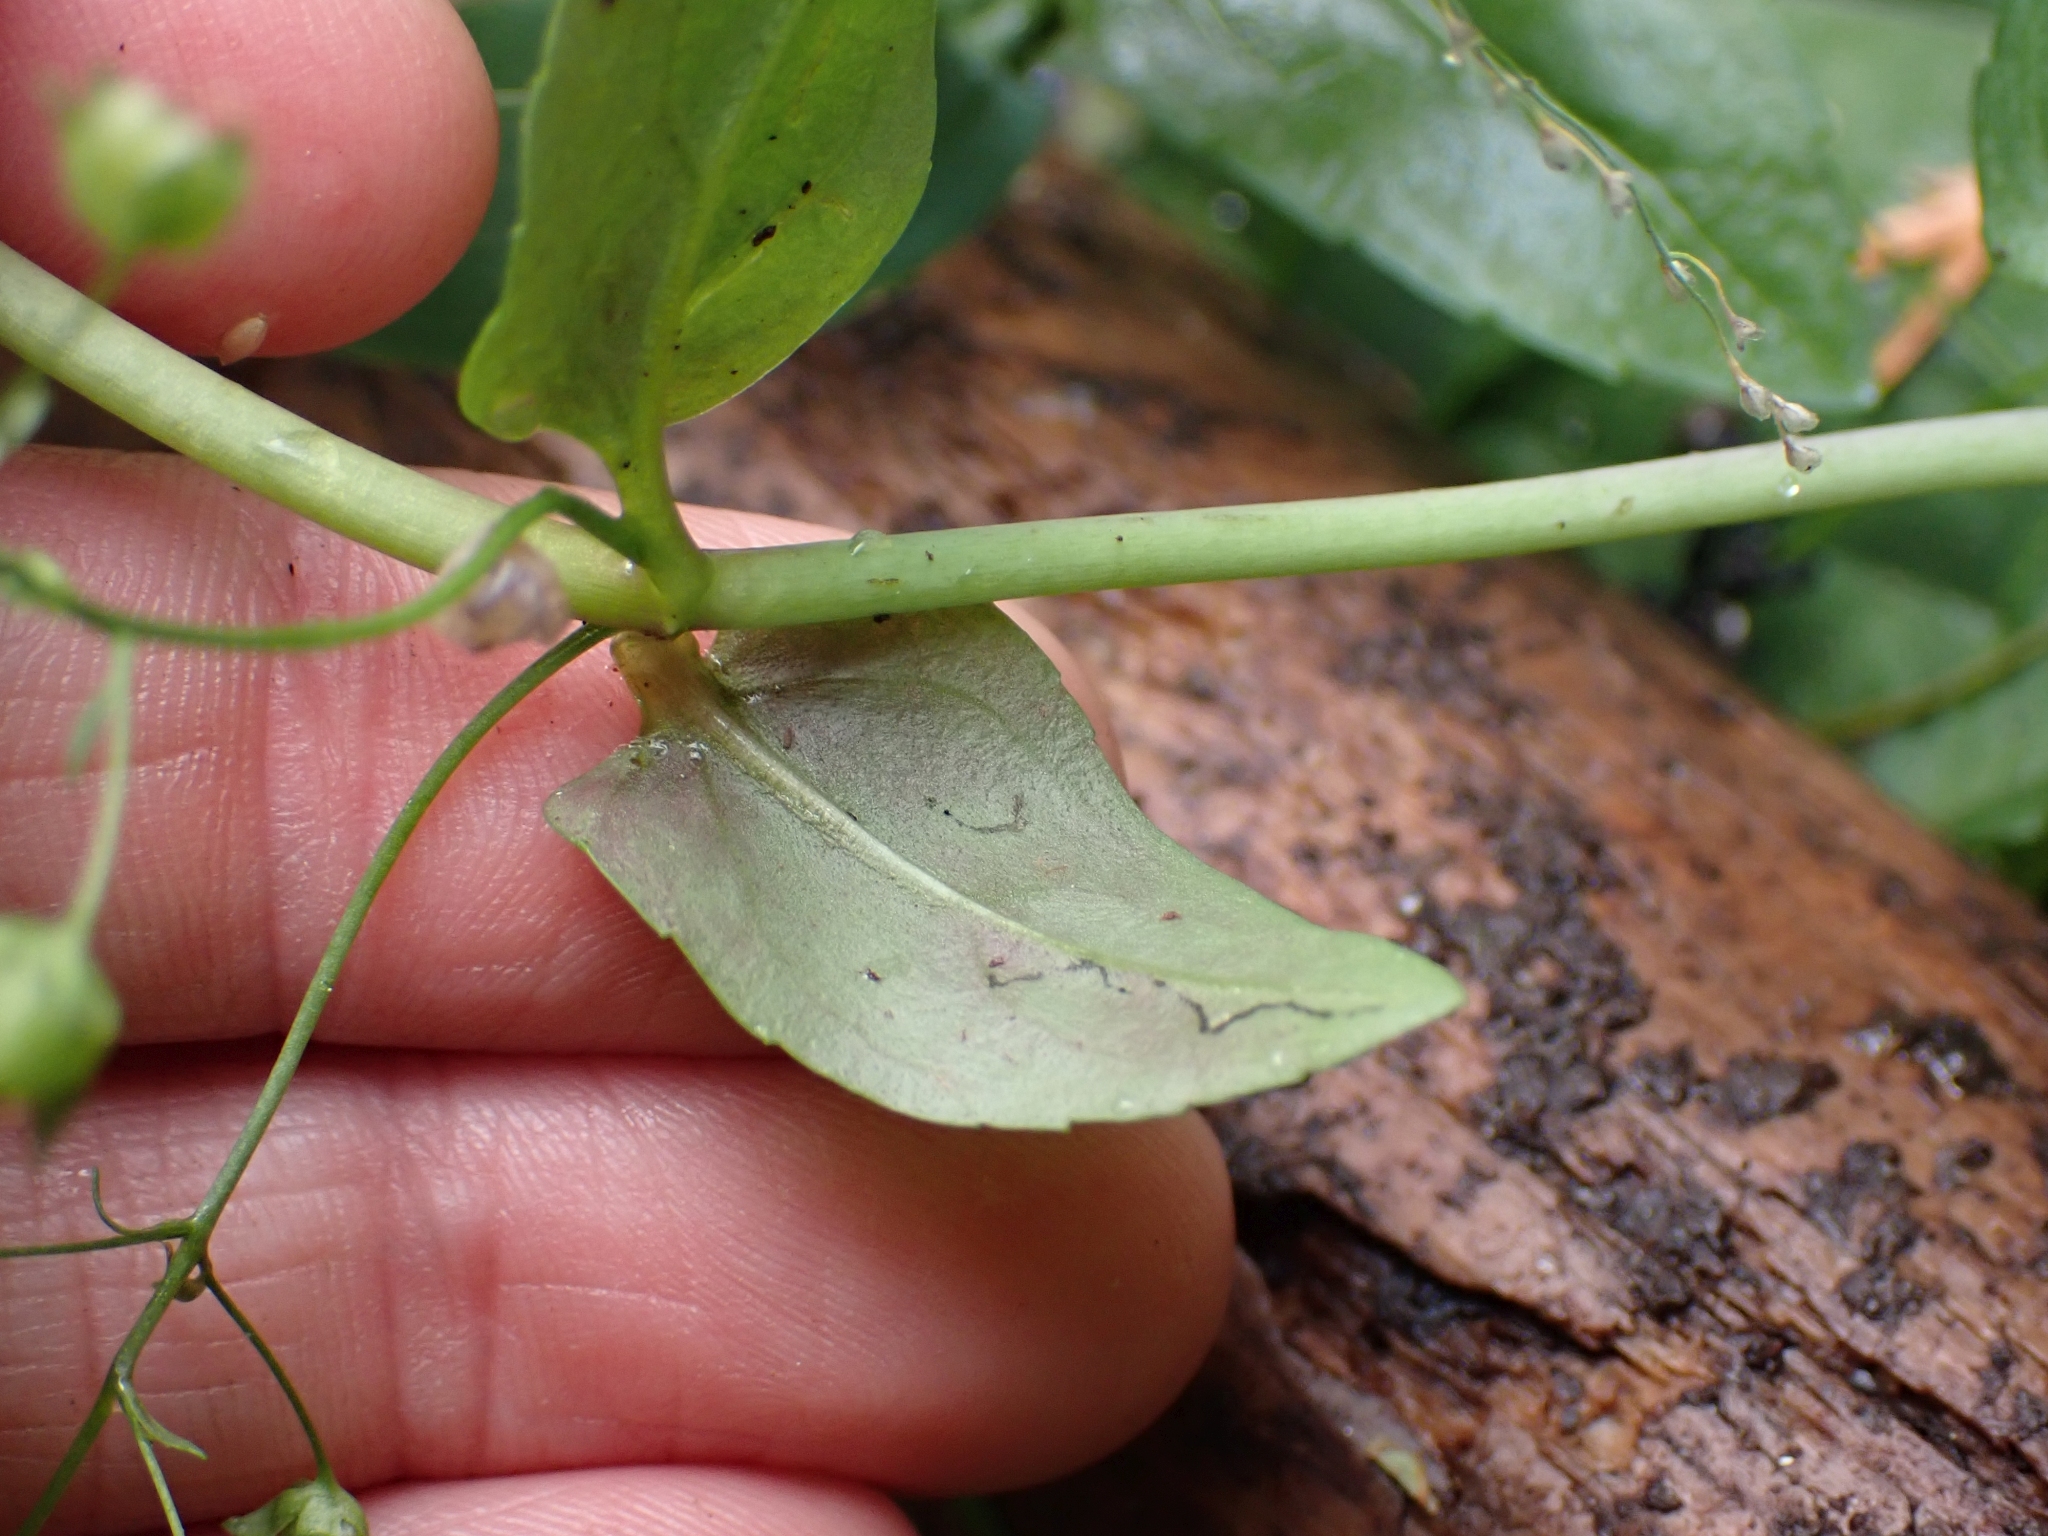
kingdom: Plantae
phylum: Tracheophyta
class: Magnoliopsida
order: Lamiales
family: Plantaginaceae
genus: Veronica
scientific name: Veronica americana
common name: American brooklime
